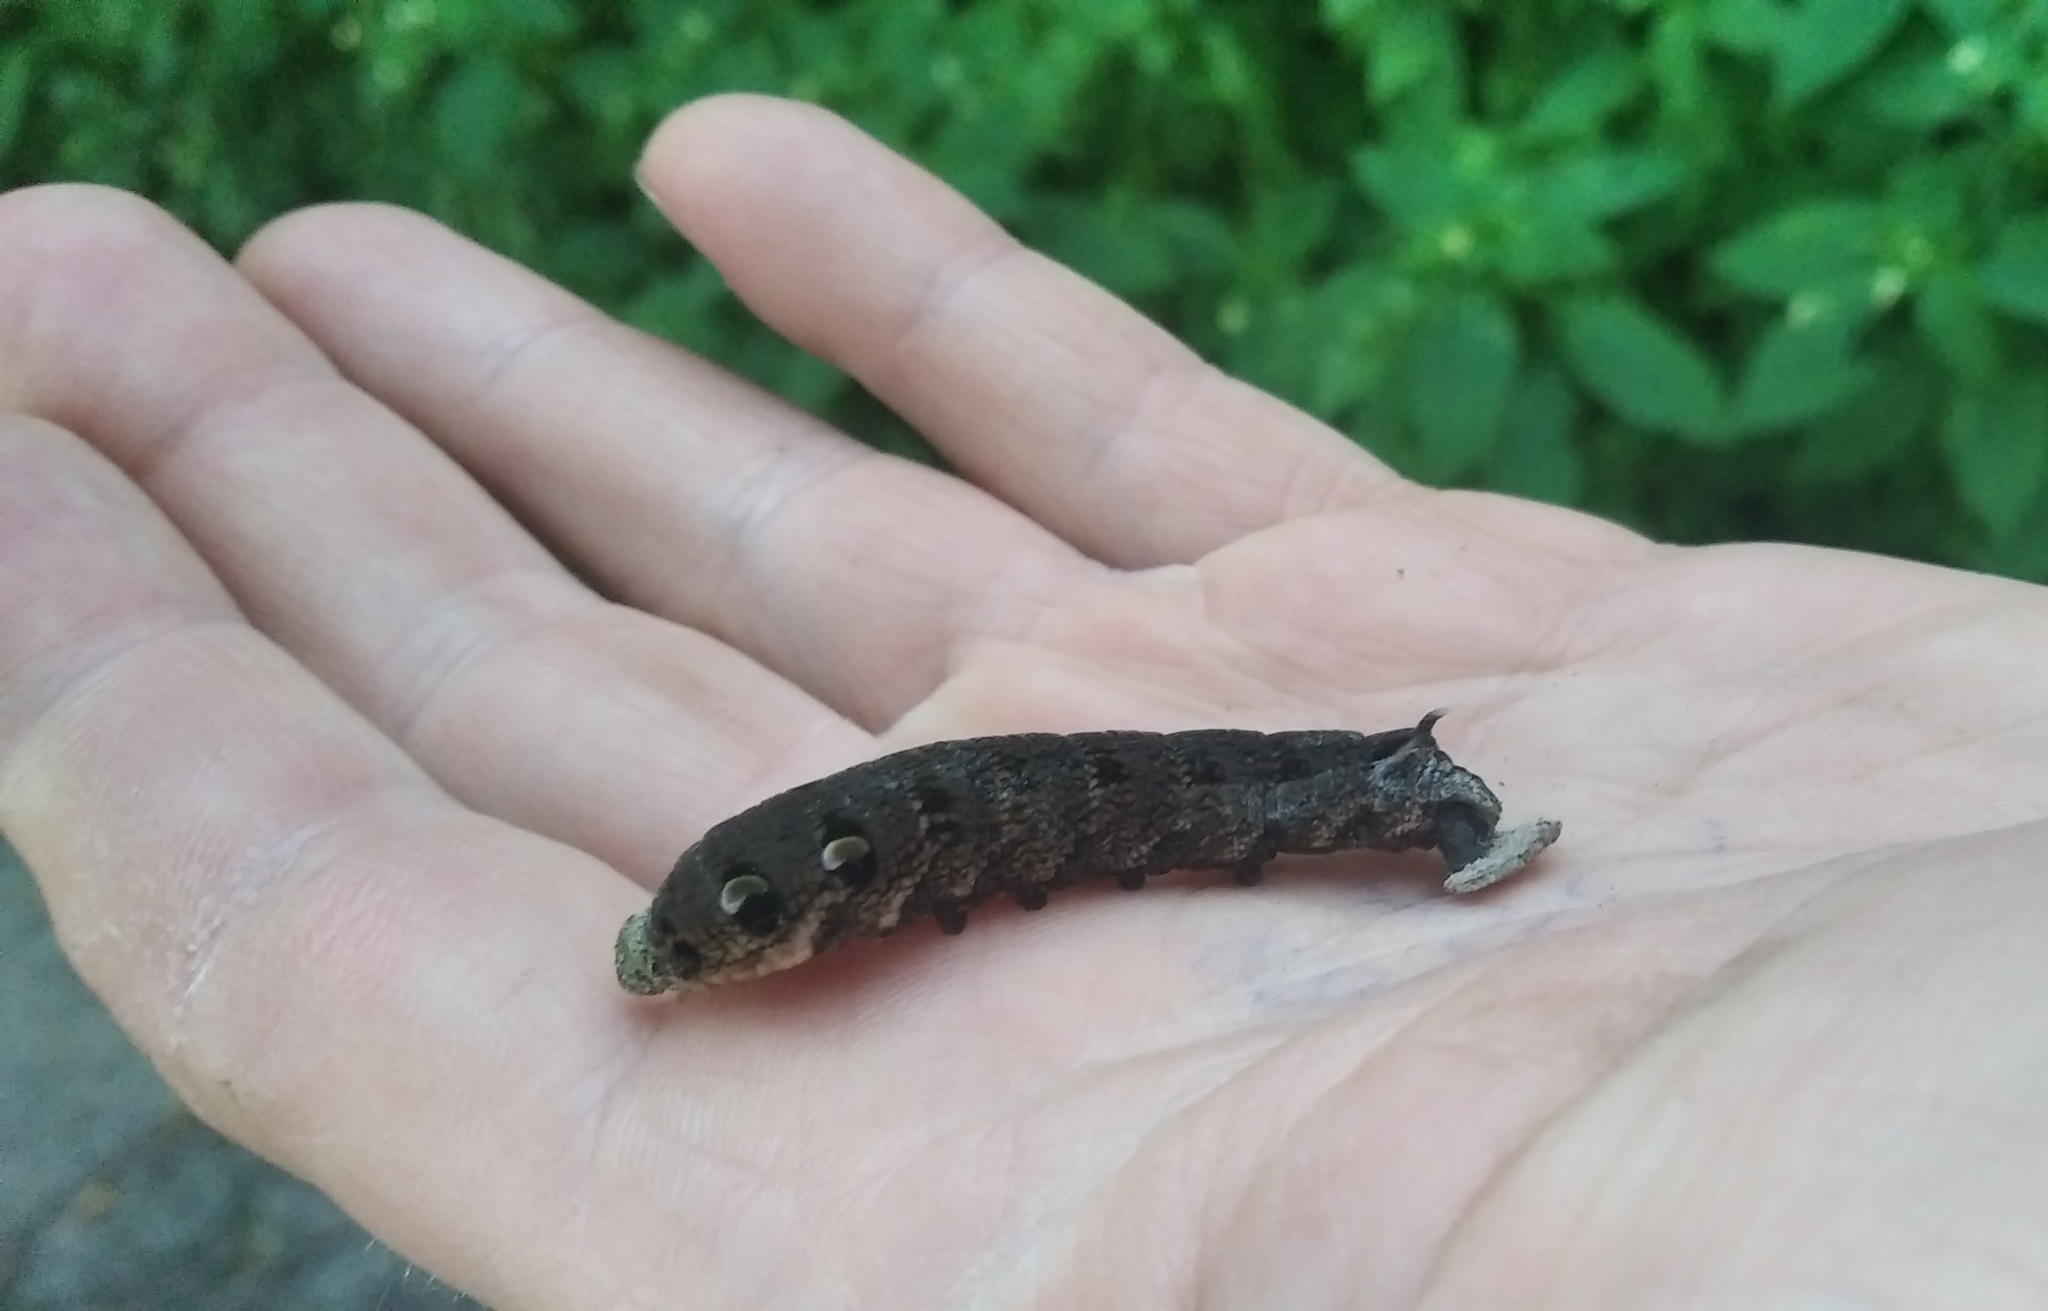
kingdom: Animalia
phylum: Arthropoda
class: Insecta
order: Lepidoptera
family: Sphingidae
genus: Deilephila
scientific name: Deilephila elpenor
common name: Elephant hawk-moth
